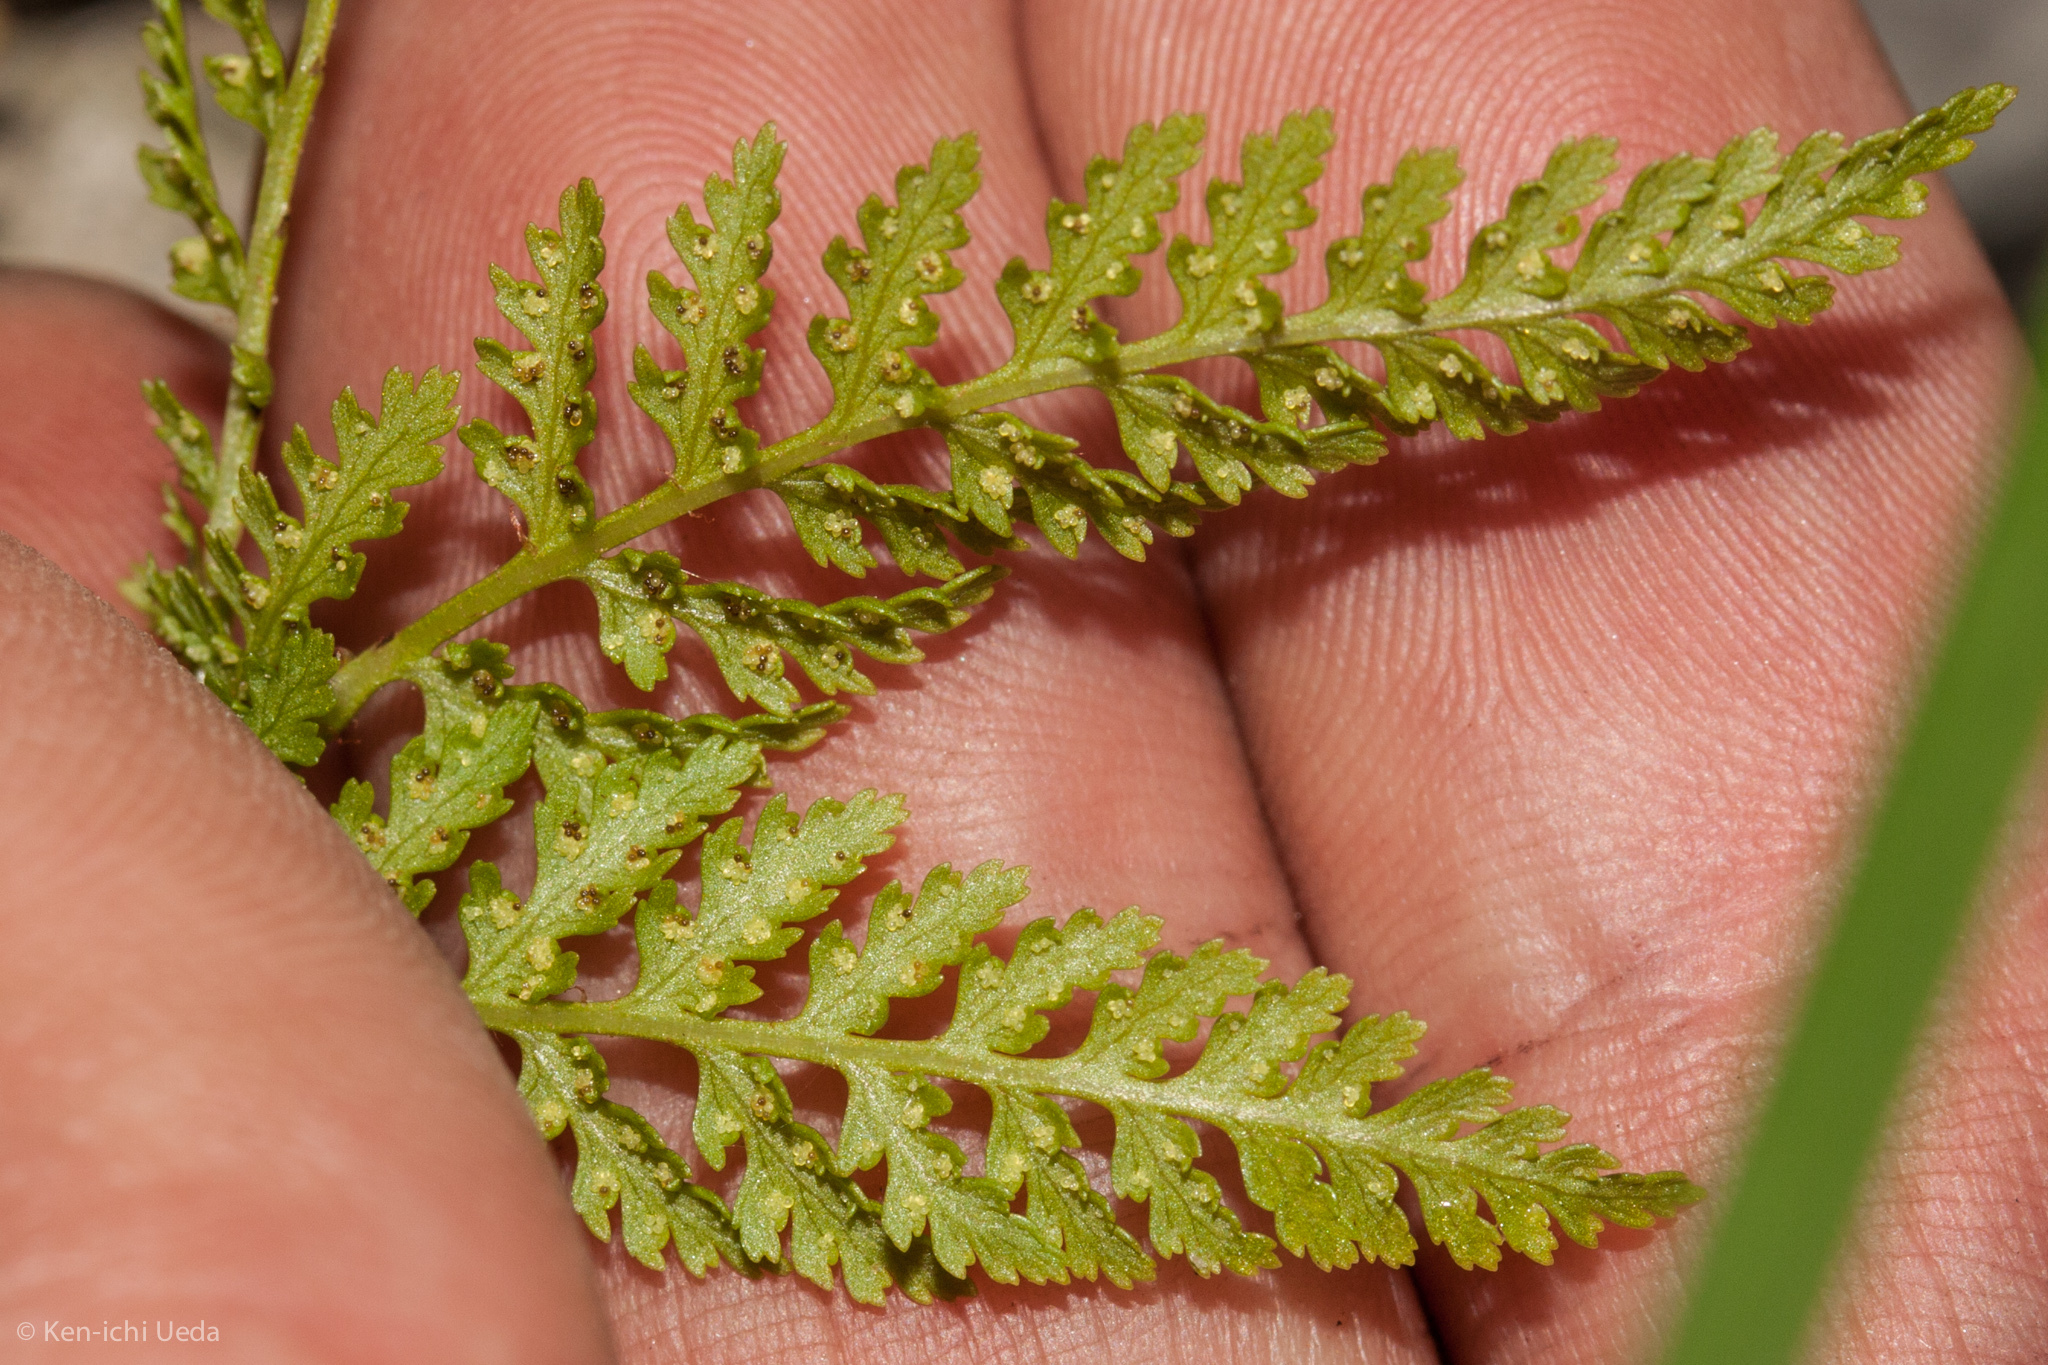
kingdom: Plantae
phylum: Tracheophyta
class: Polypodiopsida
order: Polypodiales
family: Athyriaceae
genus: Athyrium
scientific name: Athyrium americanum
